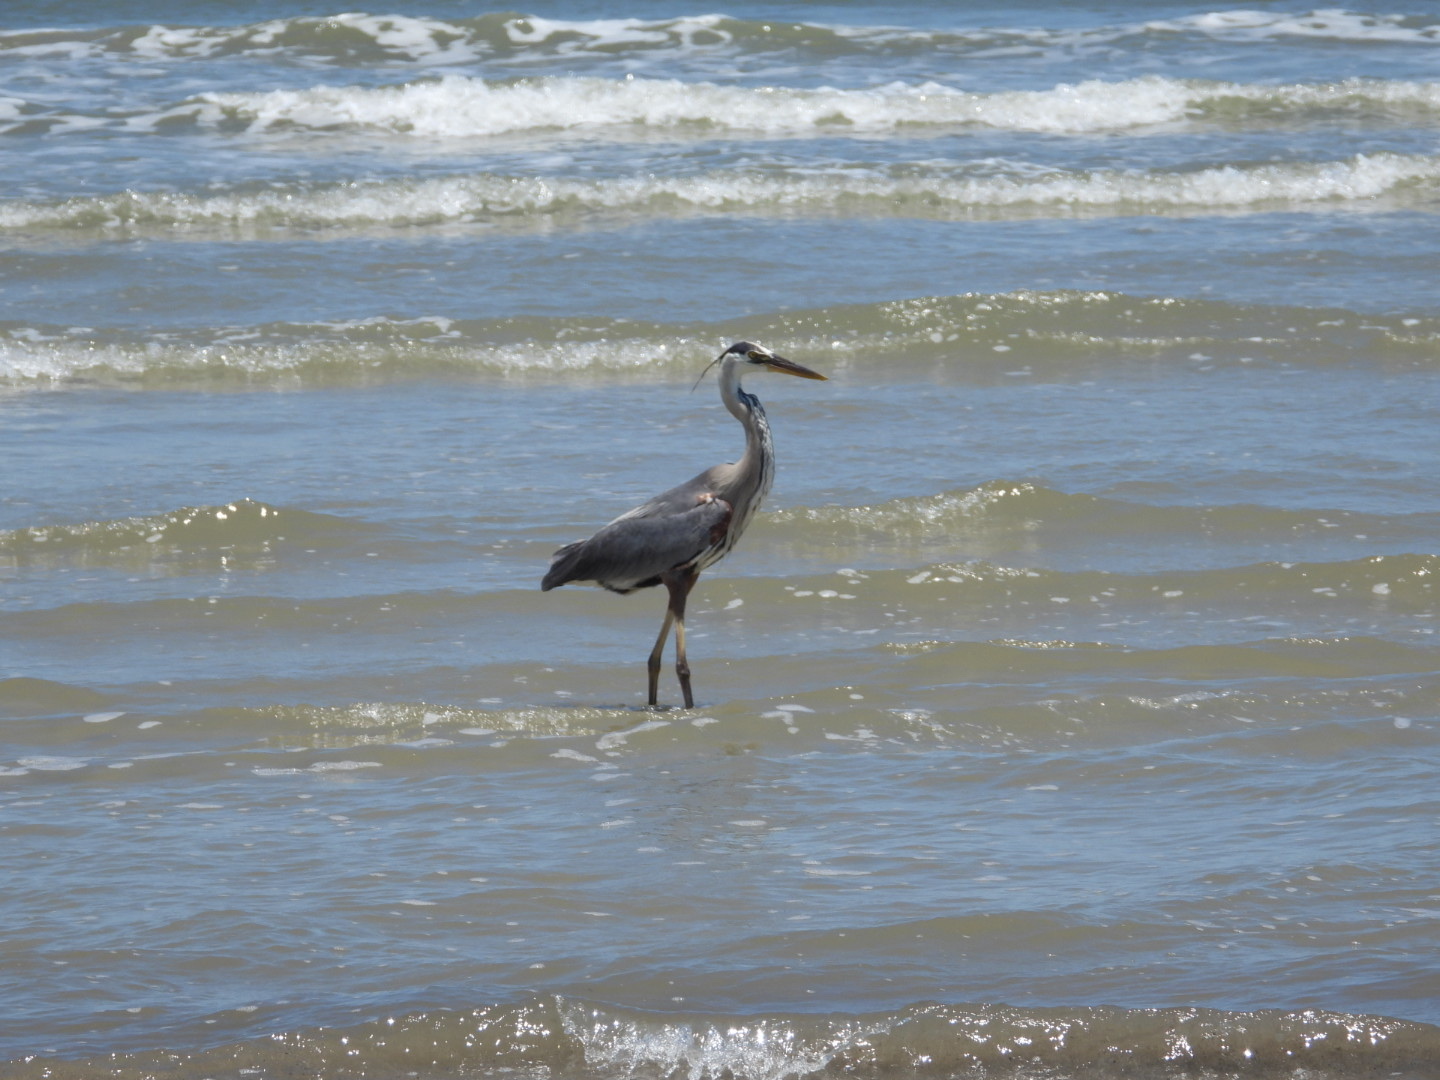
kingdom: Animalia
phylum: Chordata
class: Aves
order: Pelecaniformes
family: Ardeidae
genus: Ardea
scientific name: Ardea herodias
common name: Great blue heron
